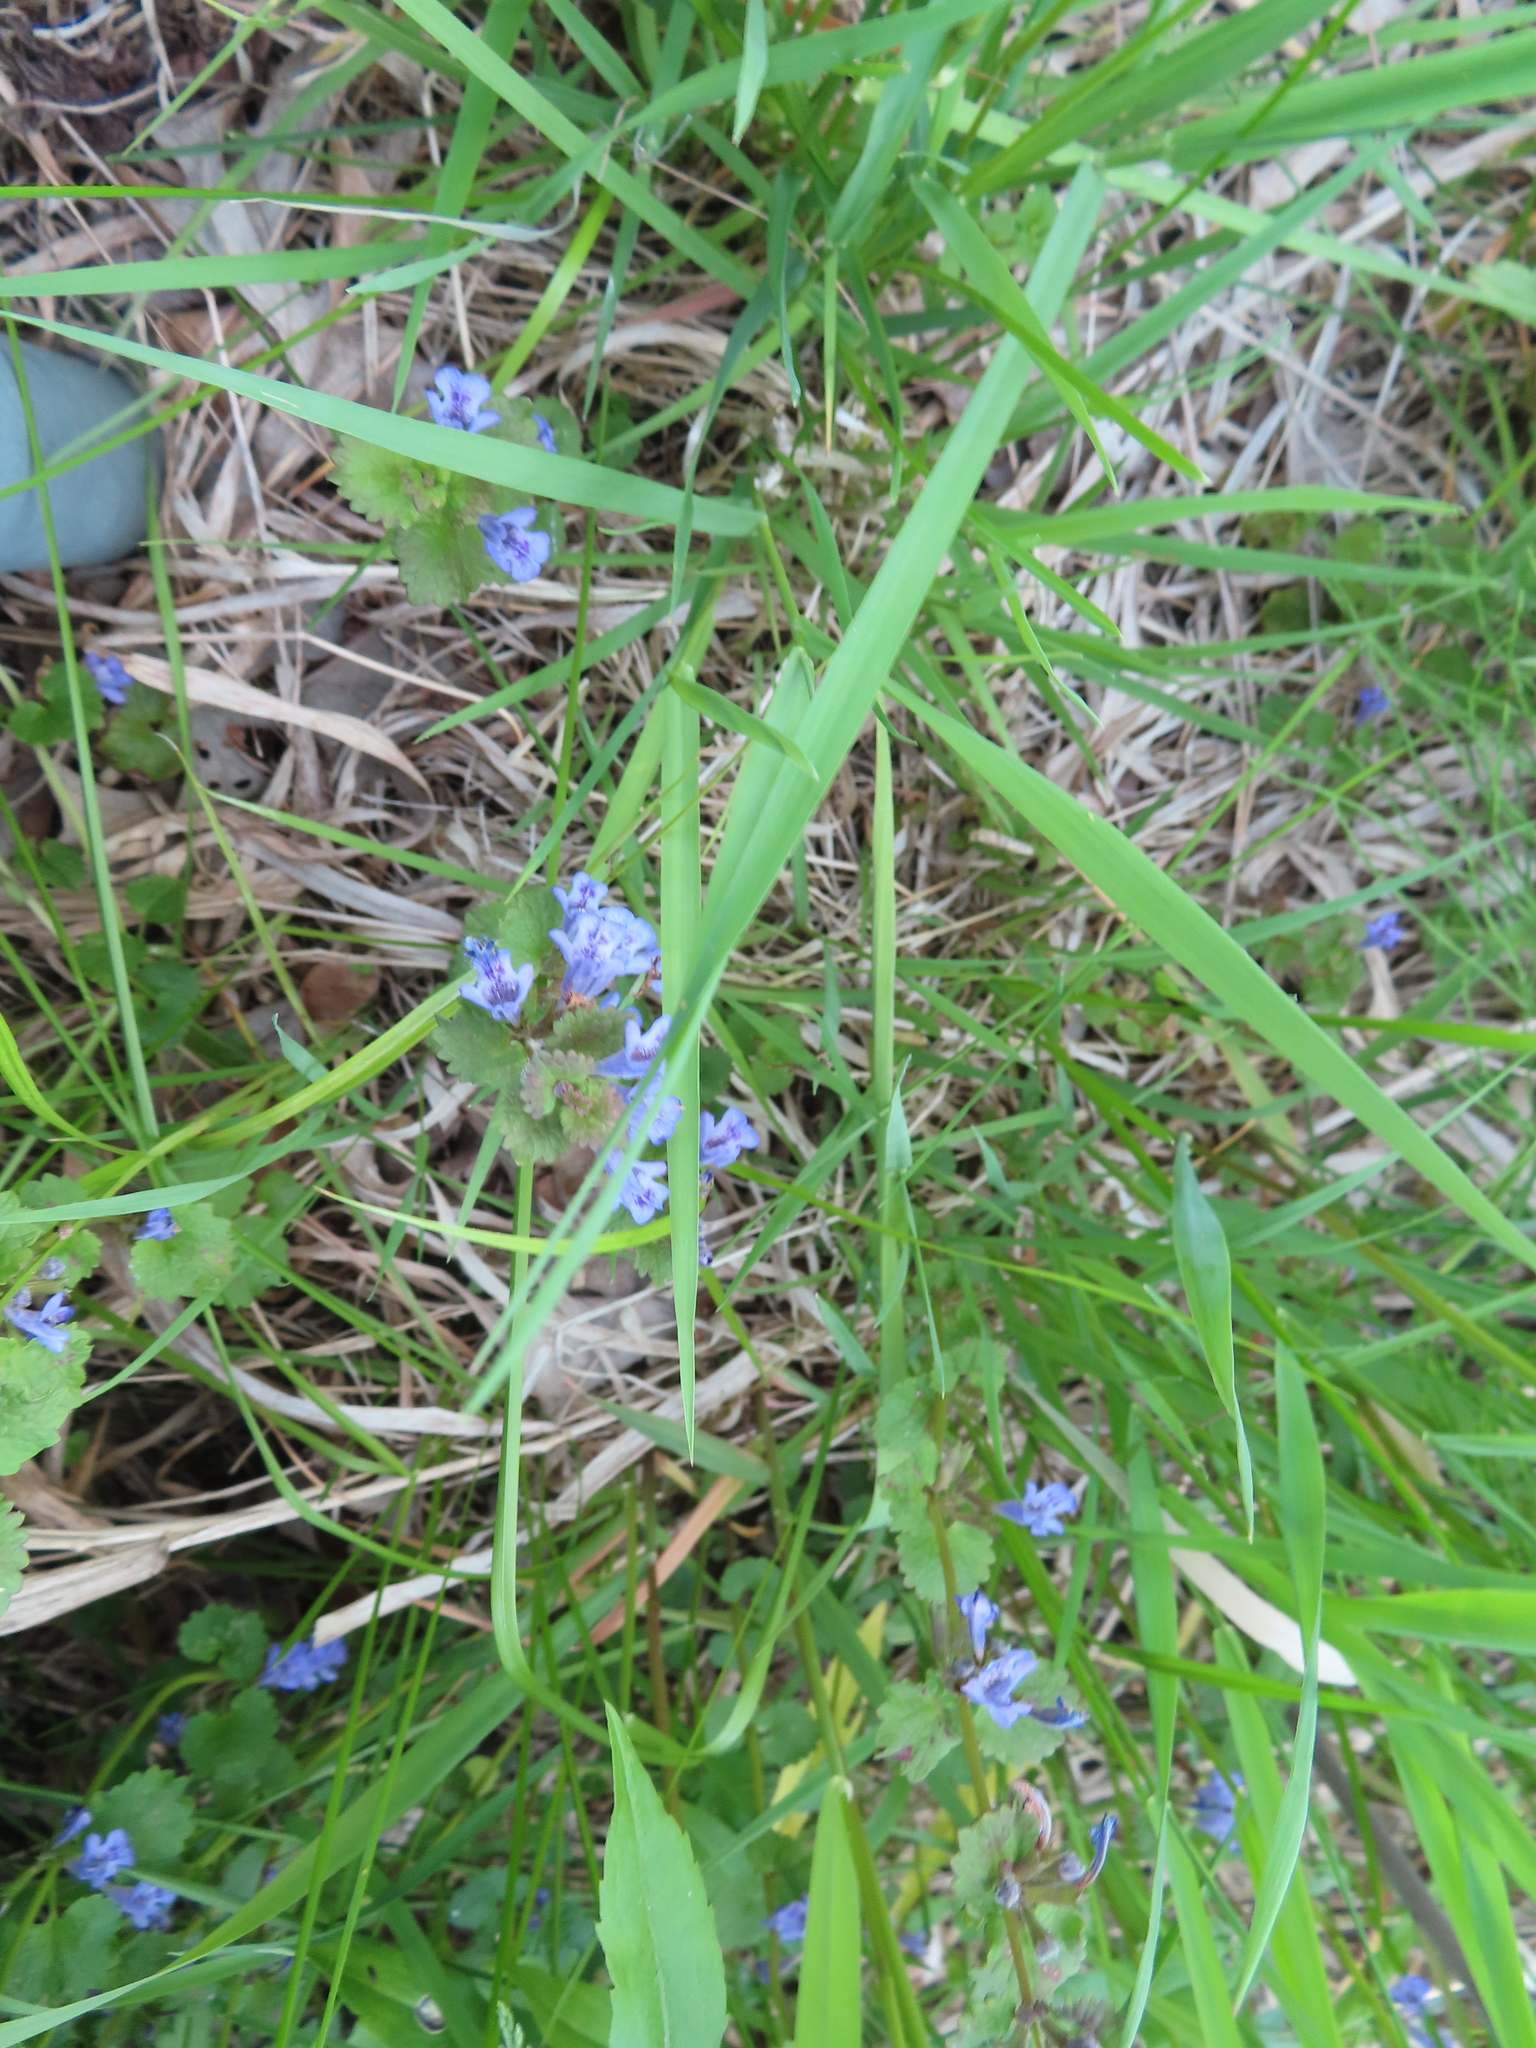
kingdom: Plantae
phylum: Tracheophyta
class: Magnoliopsida
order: Lamiales
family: Lamiaceae
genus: Glechoma
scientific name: Glechoma hederacea
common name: Ground ivy
